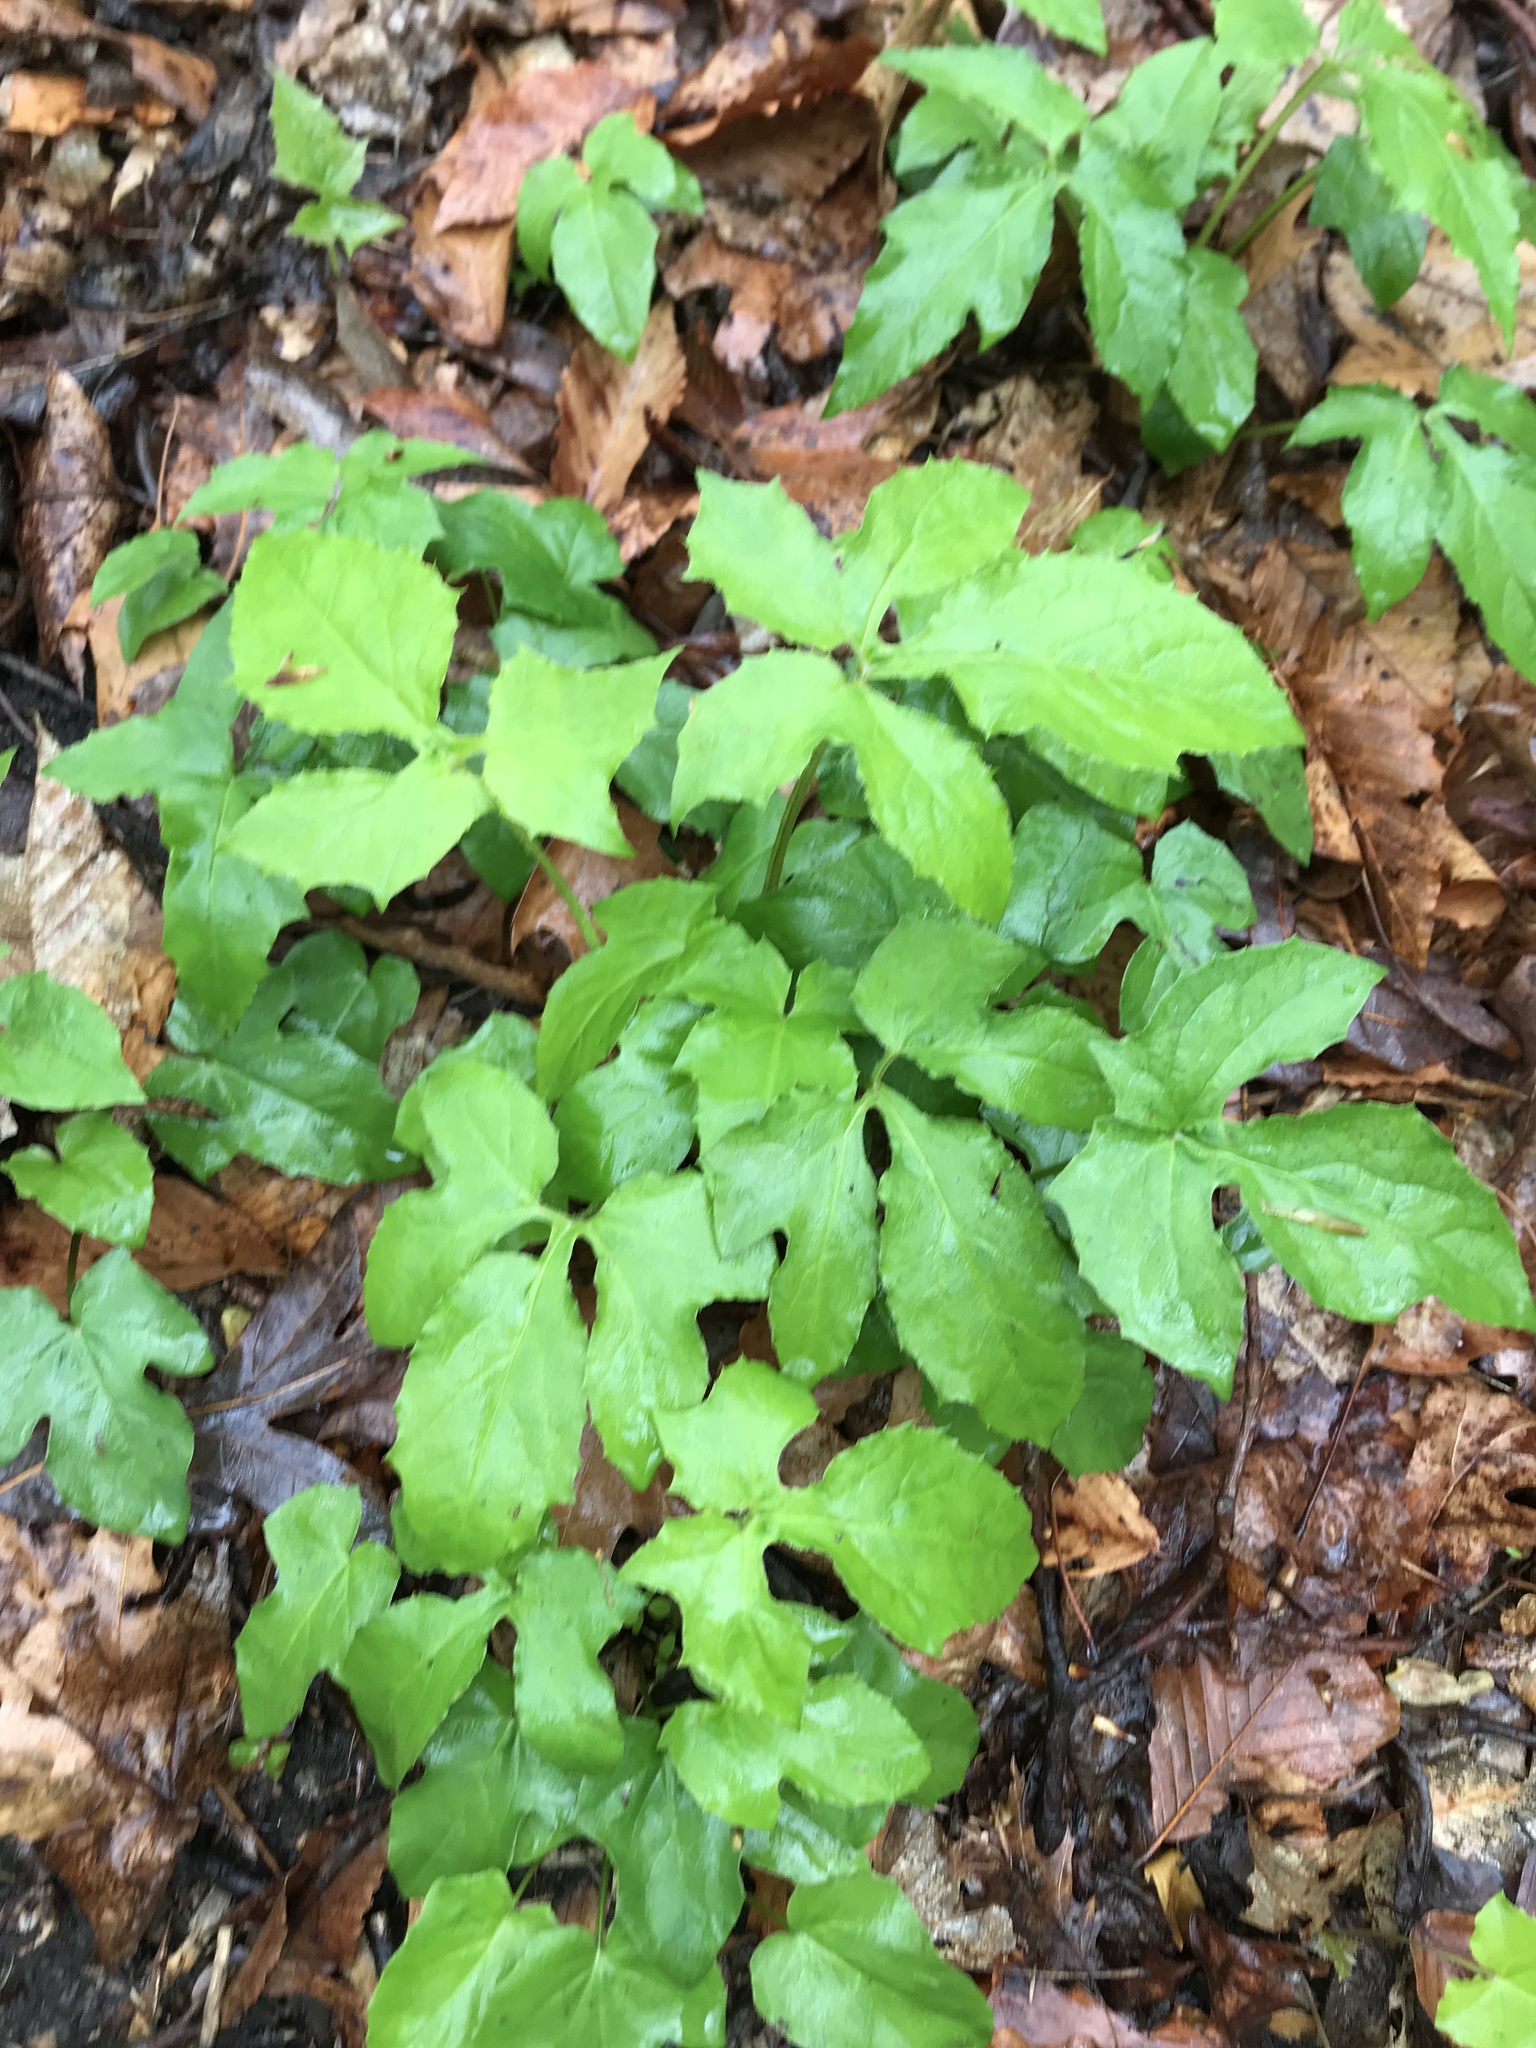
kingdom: Plantae
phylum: Tracheophyta
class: Magnoliopsida
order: Asterales
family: Asteraceae
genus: Nabalus
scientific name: Nabalus
